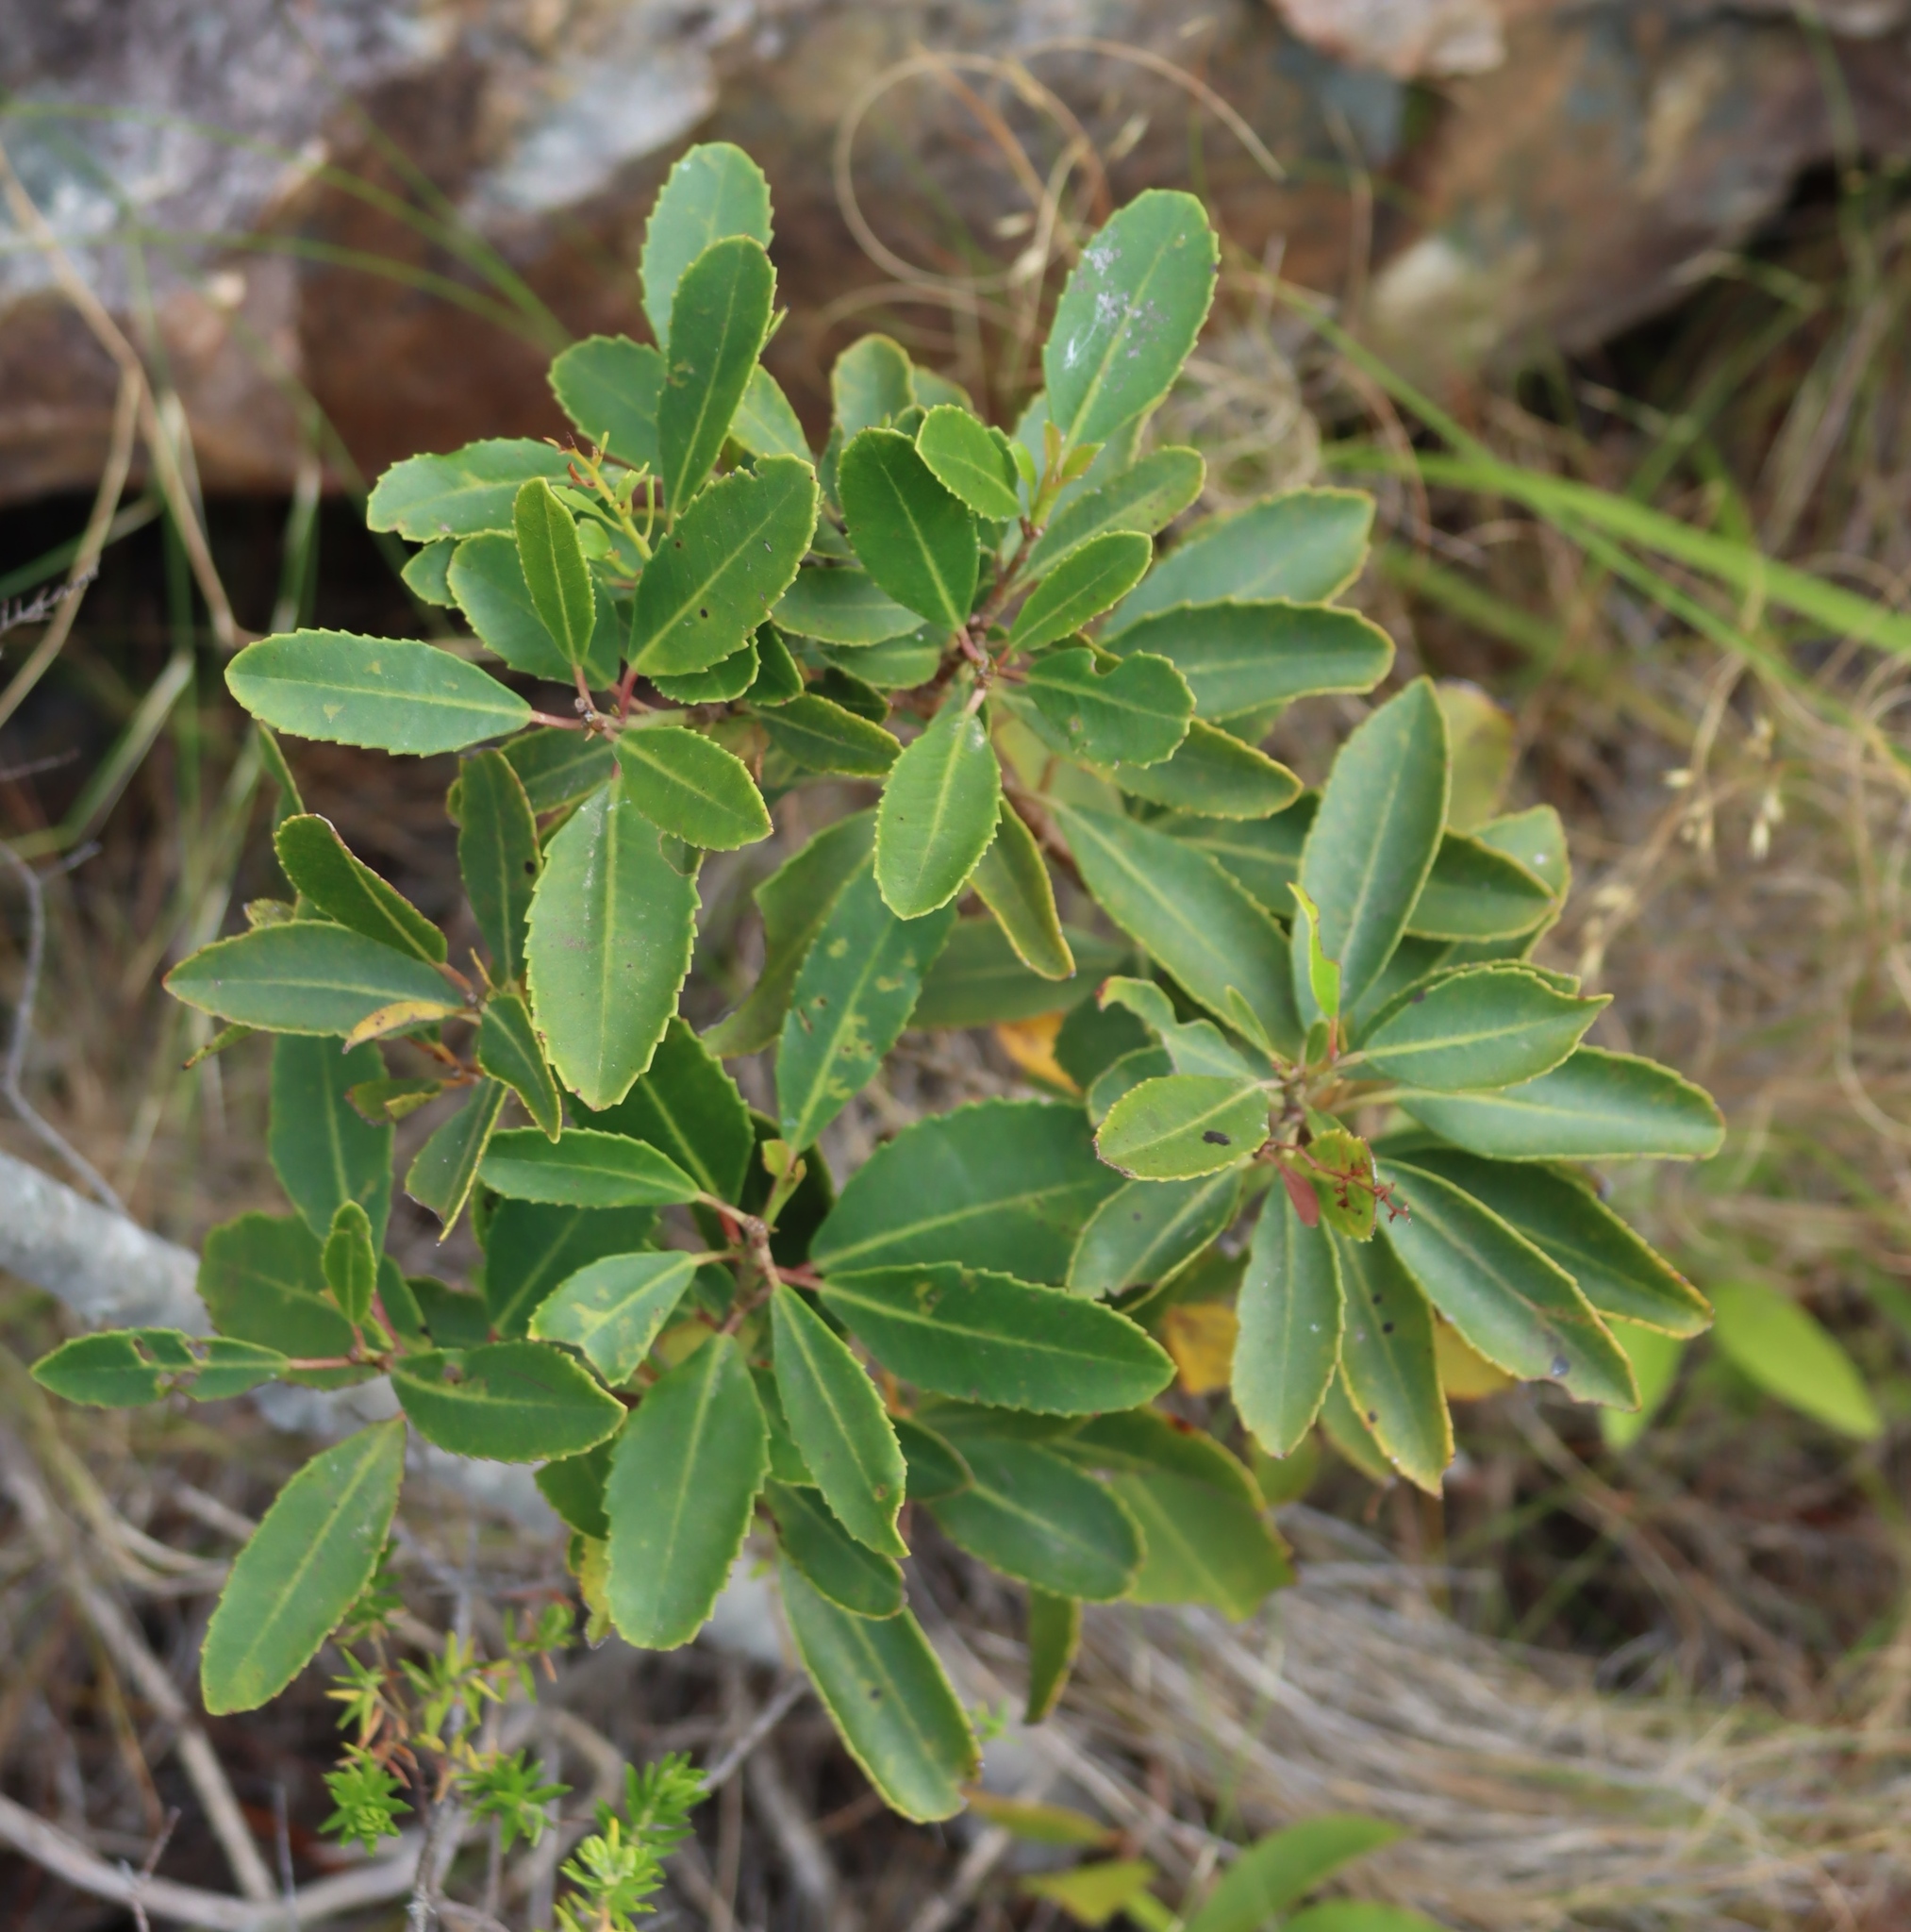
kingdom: Plantae
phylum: Tracheophyta
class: Magnoliopsida
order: Sapindales
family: Anacardiaceae
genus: Laurophyllus
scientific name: Laurophyllus capensis
